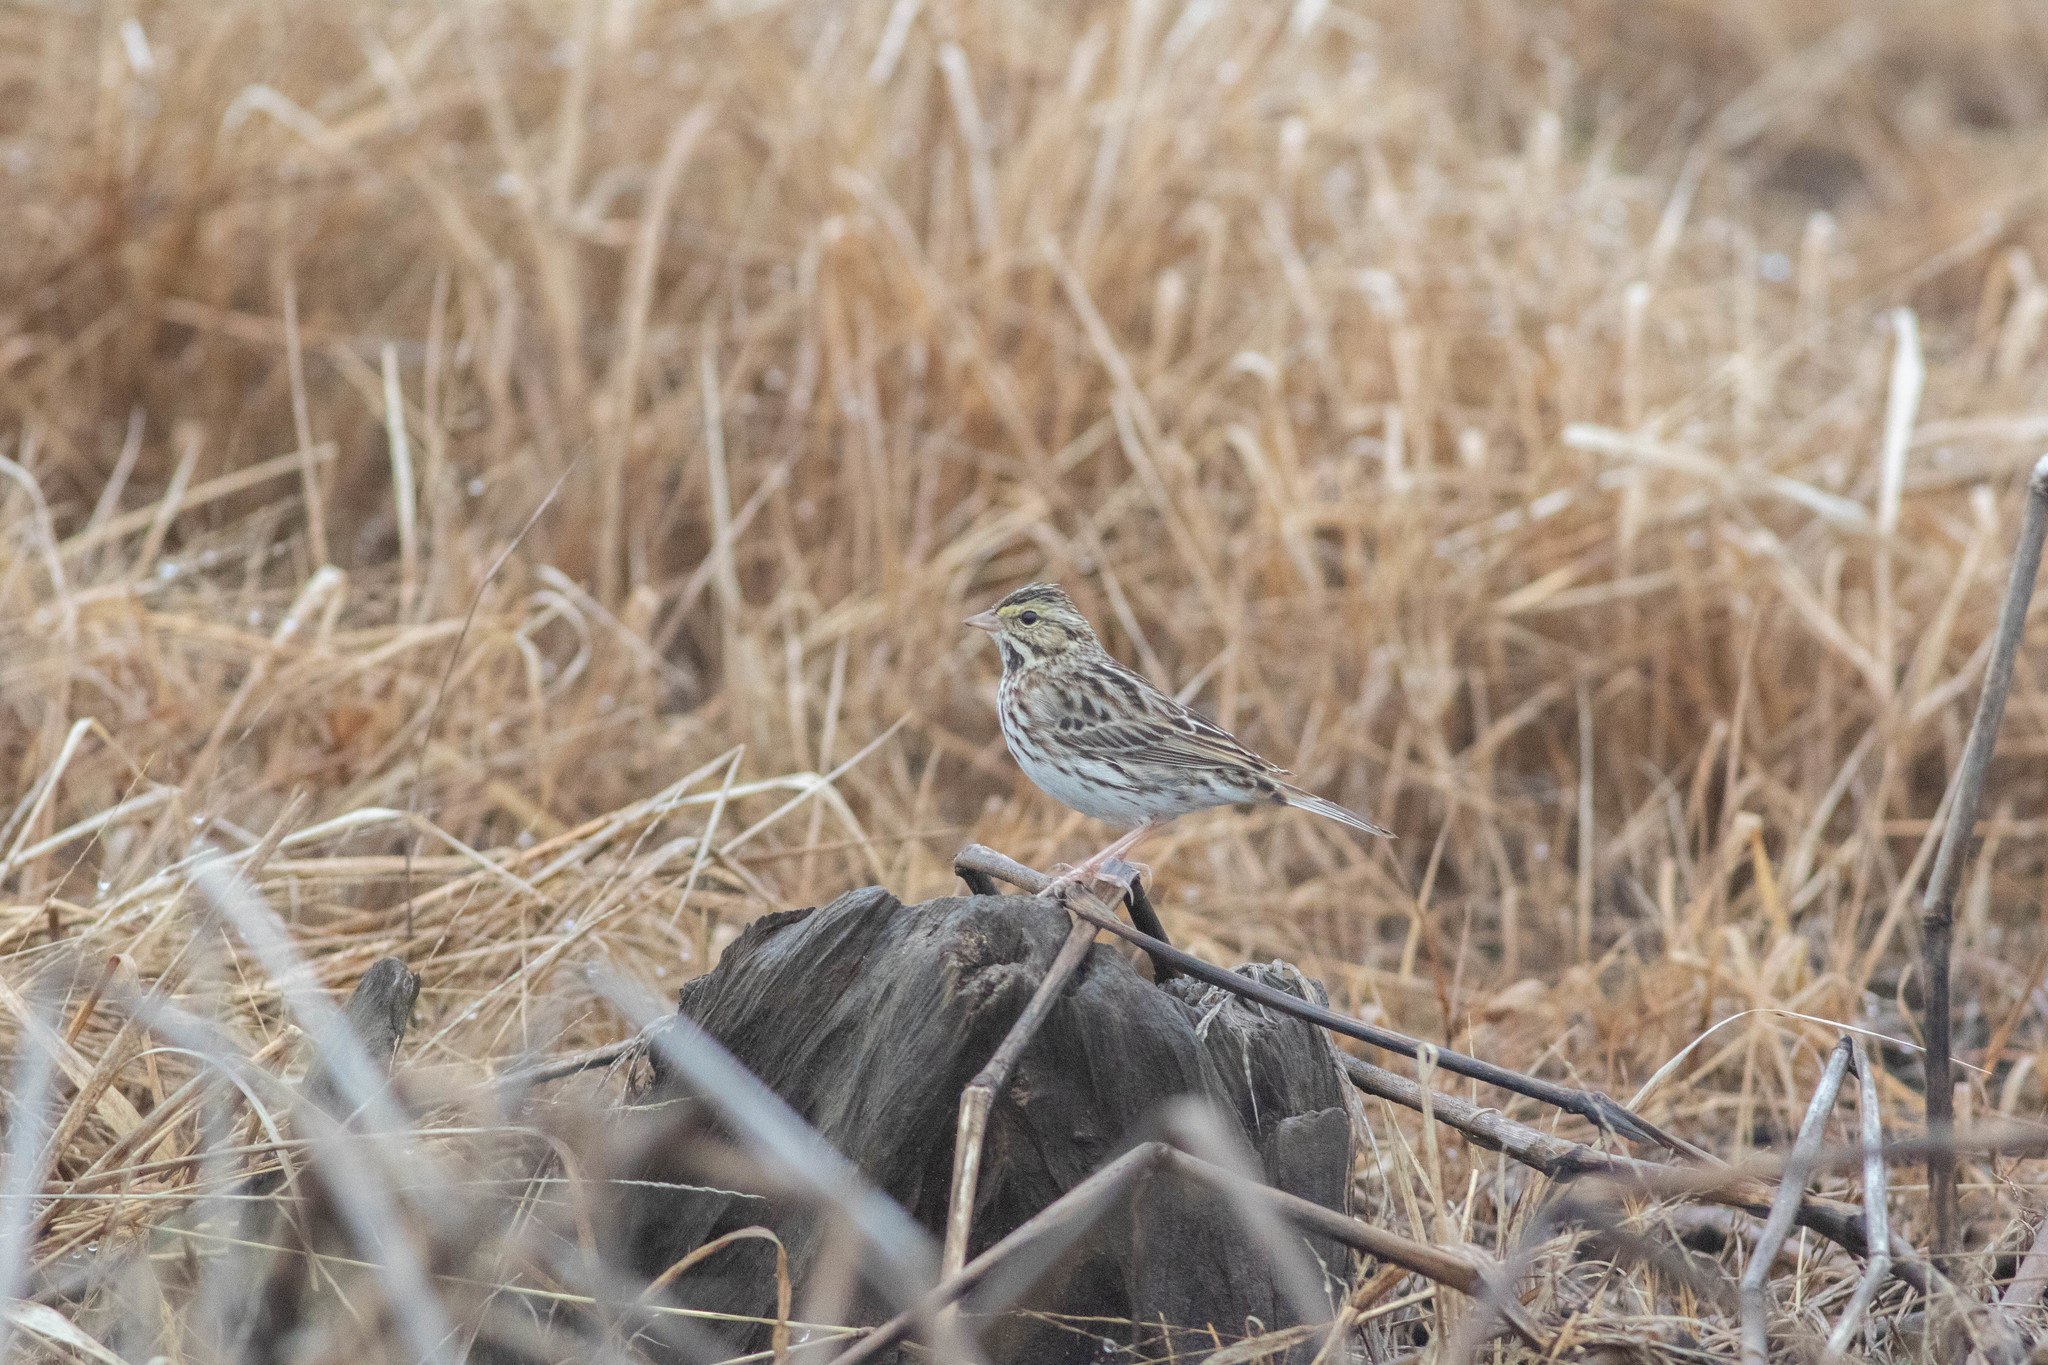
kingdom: Animalia
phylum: Chordata
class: Aves
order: Passeriformes
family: Passerellidae
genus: Passerculus
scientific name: Passerculus sandwichensis
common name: Savannah sparrow
